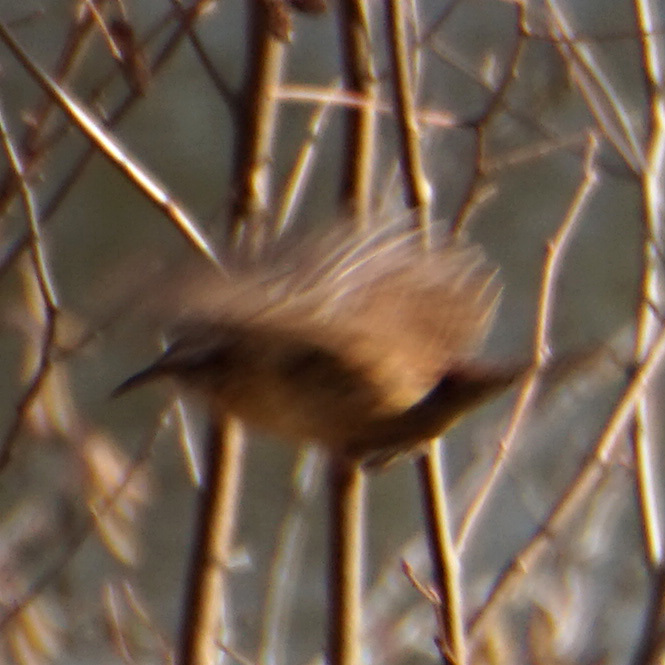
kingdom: Animalia
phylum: Chordata
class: Aves
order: Passeriformes
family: Troglodytidae
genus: Thryothorus
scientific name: Thryothorus ludovicianus
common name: Carolina wren
